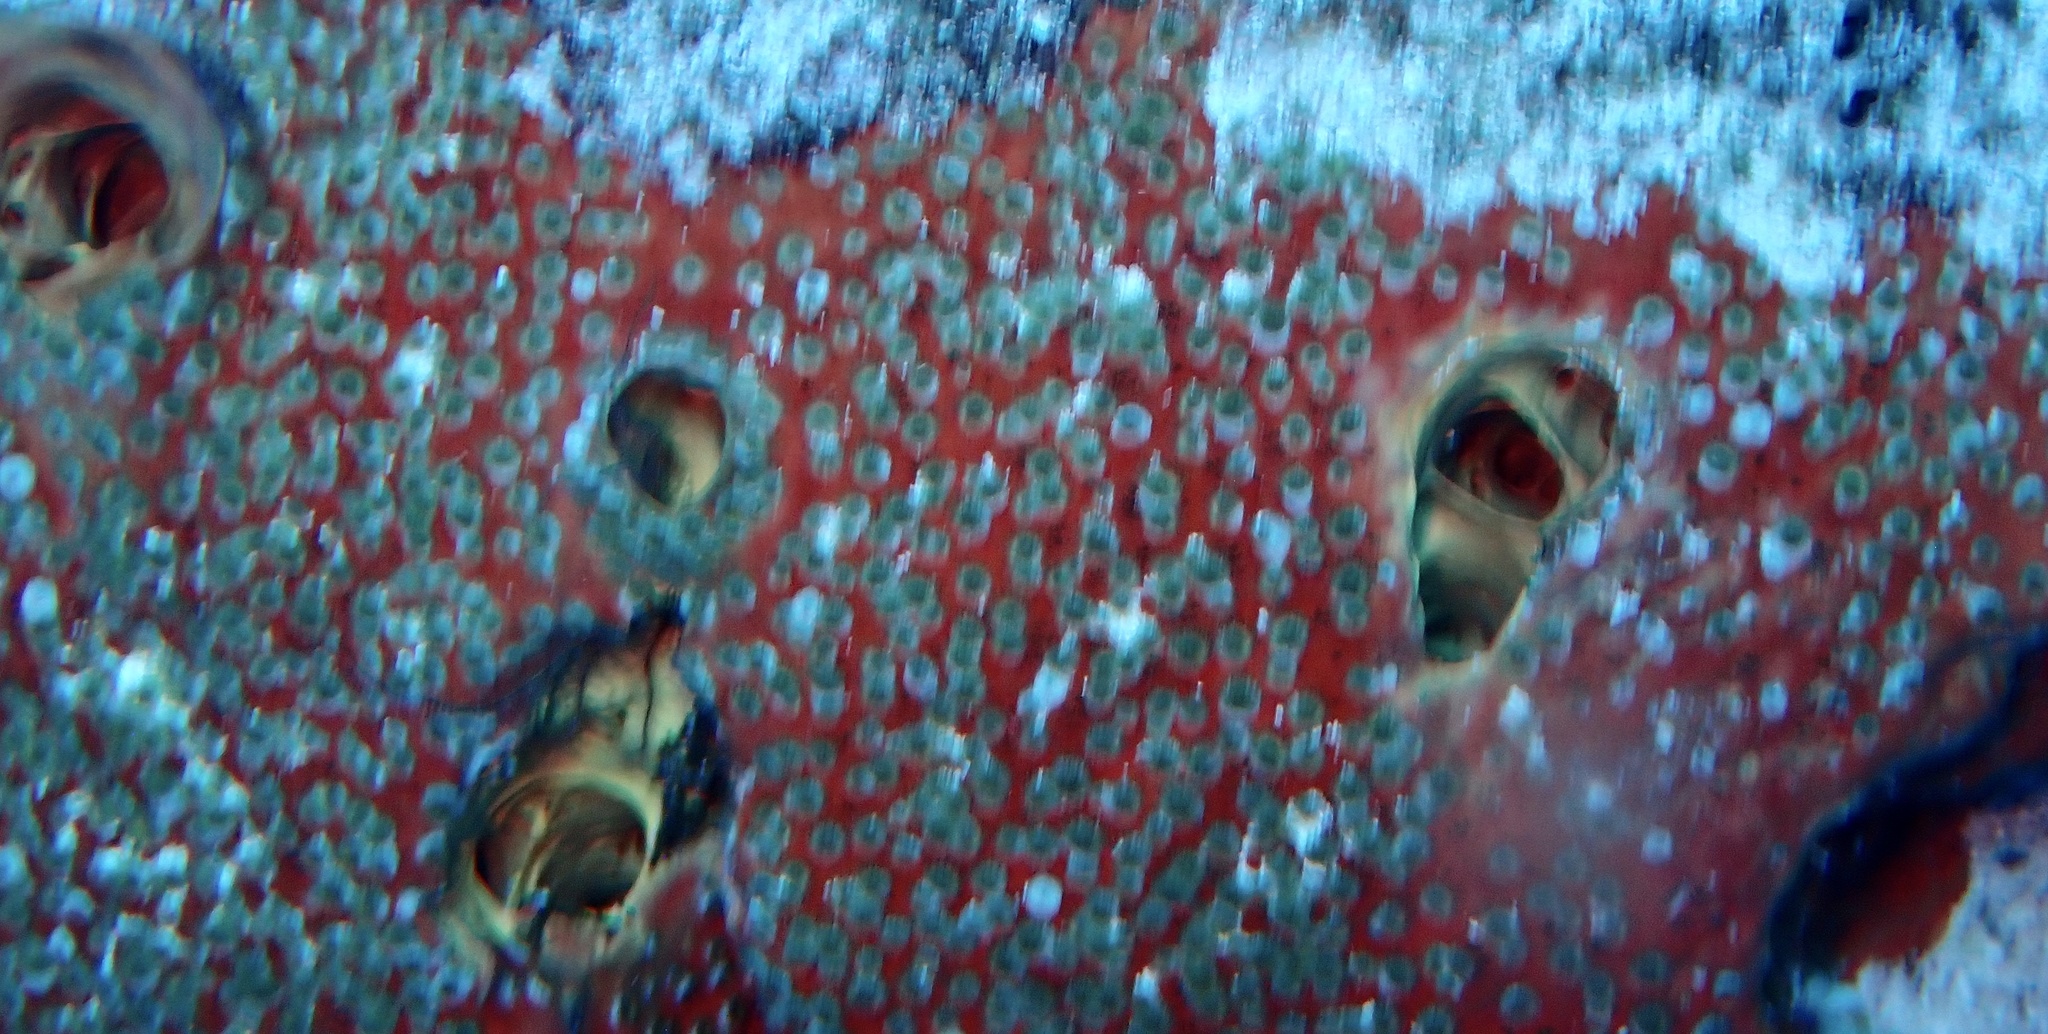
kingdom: Animalia
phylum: Porifera
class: Demospongiae
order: Clionaida
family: Clionaidae
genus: Cliothosa
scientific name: Cliothosa delitrix
